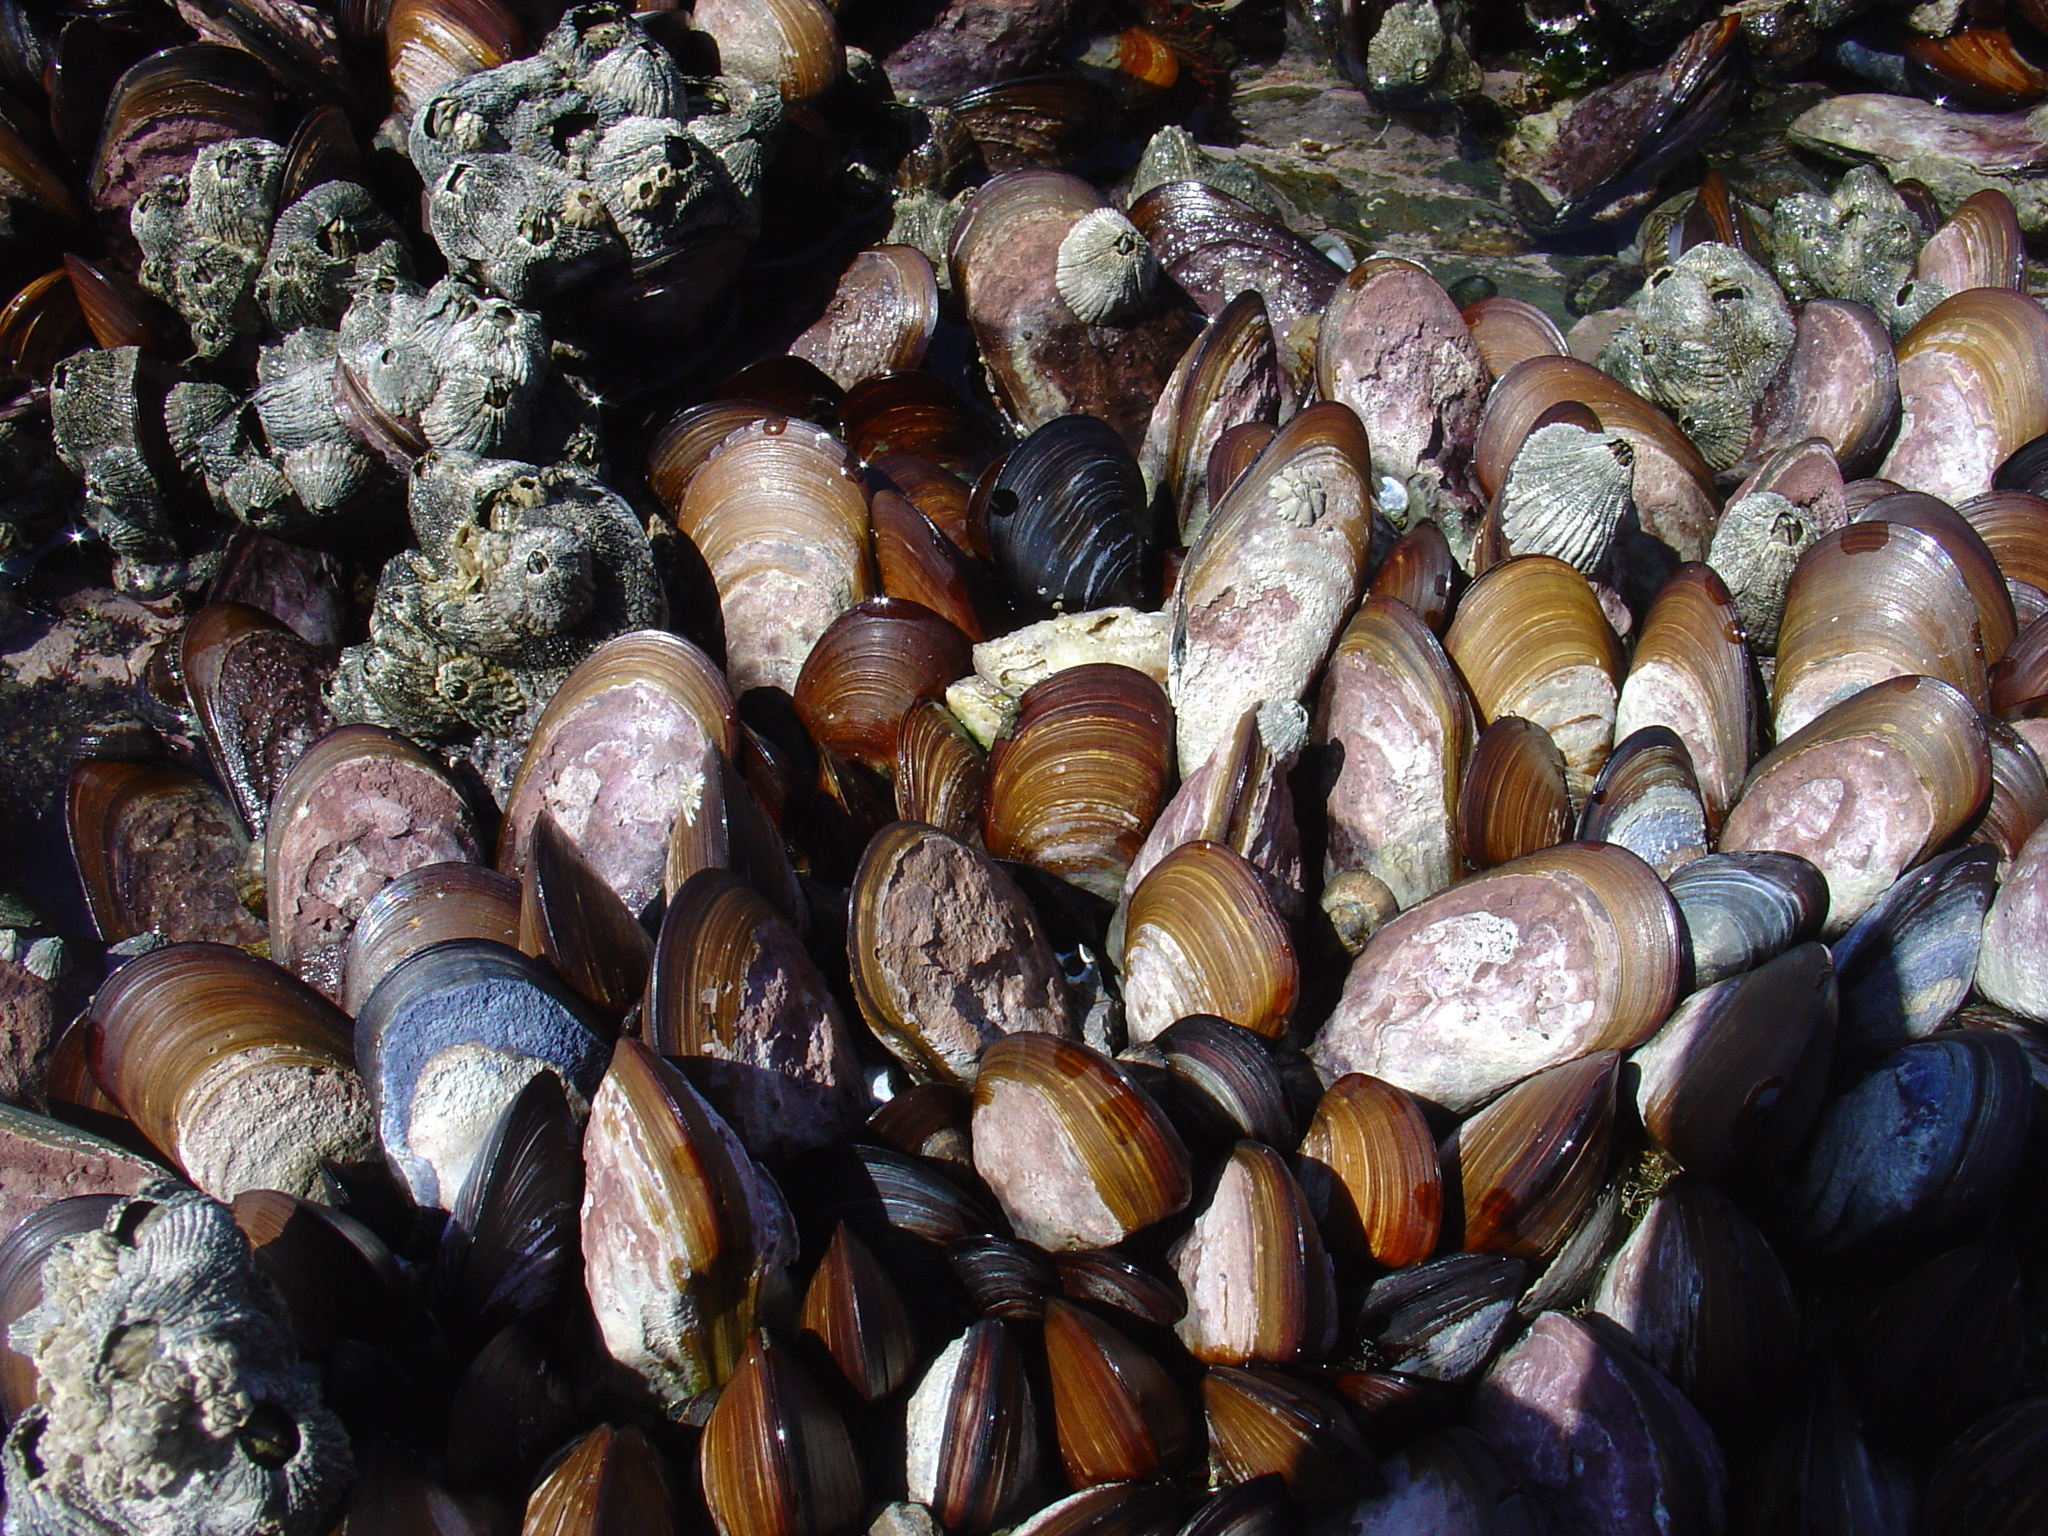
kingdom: Animalia
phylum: Mollusca
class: Bivalvia
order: Mytilida
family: Mytilidae
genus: Perna
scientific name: Perna perna
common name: Mexilhao mussel
